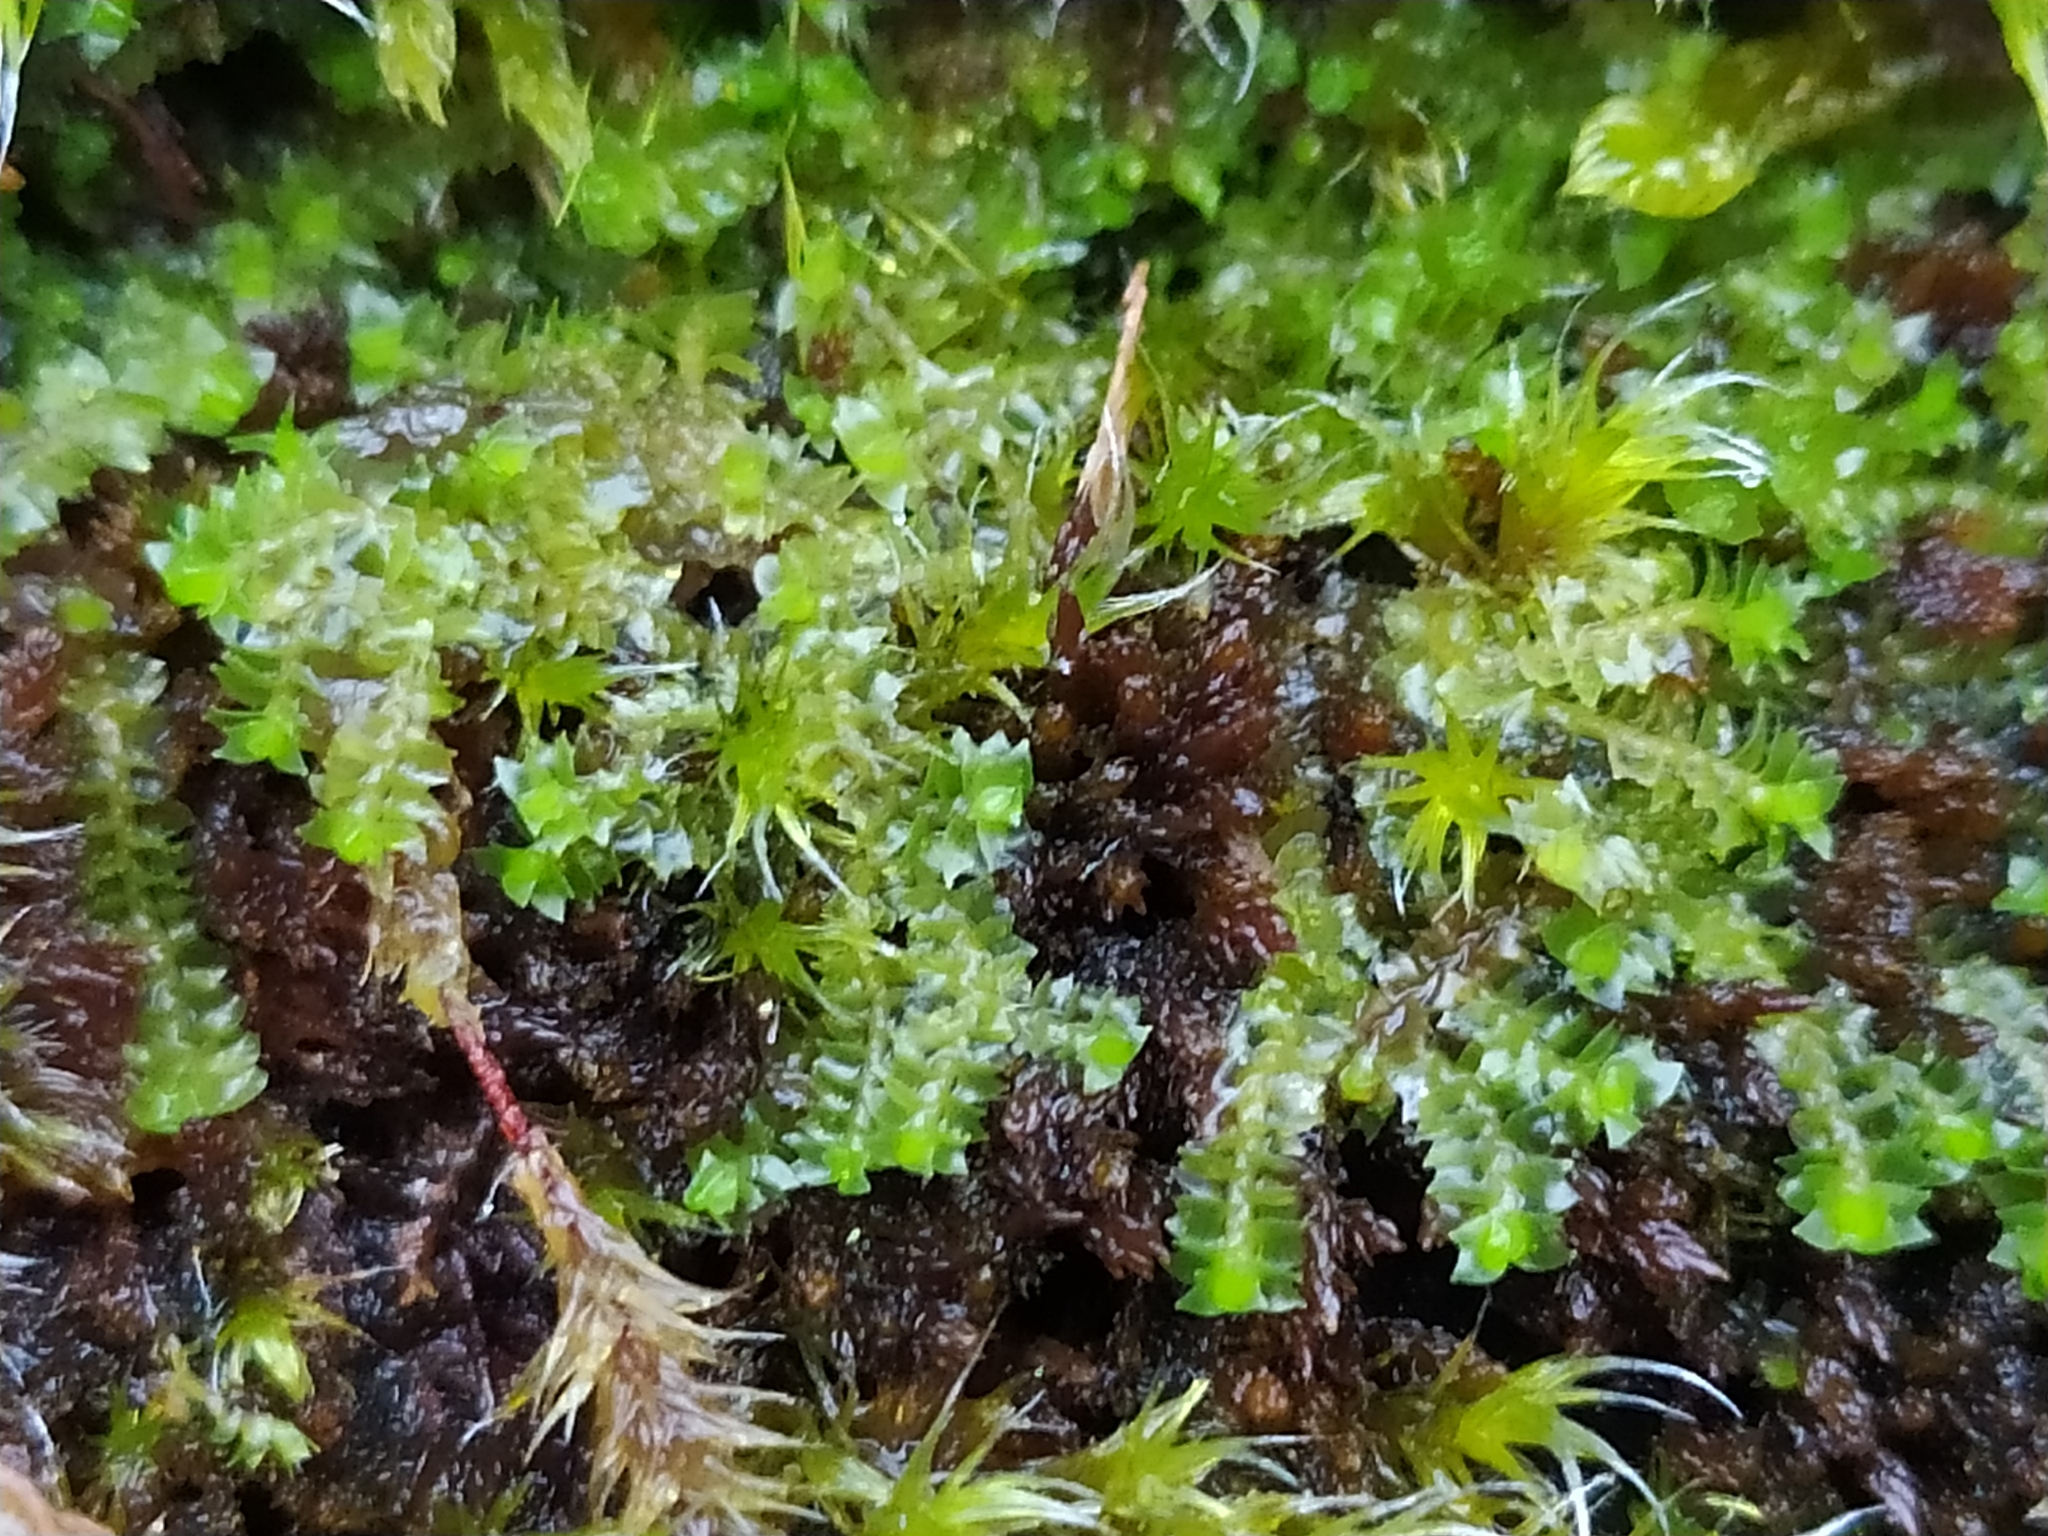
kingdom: Plantae
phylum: Marchantiophyta
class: Jungermanniopsida
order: Jungermanniales
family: Lophoziaceae
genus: Lophozia
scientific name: Lophozia silvicola
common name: Forest notchwort
